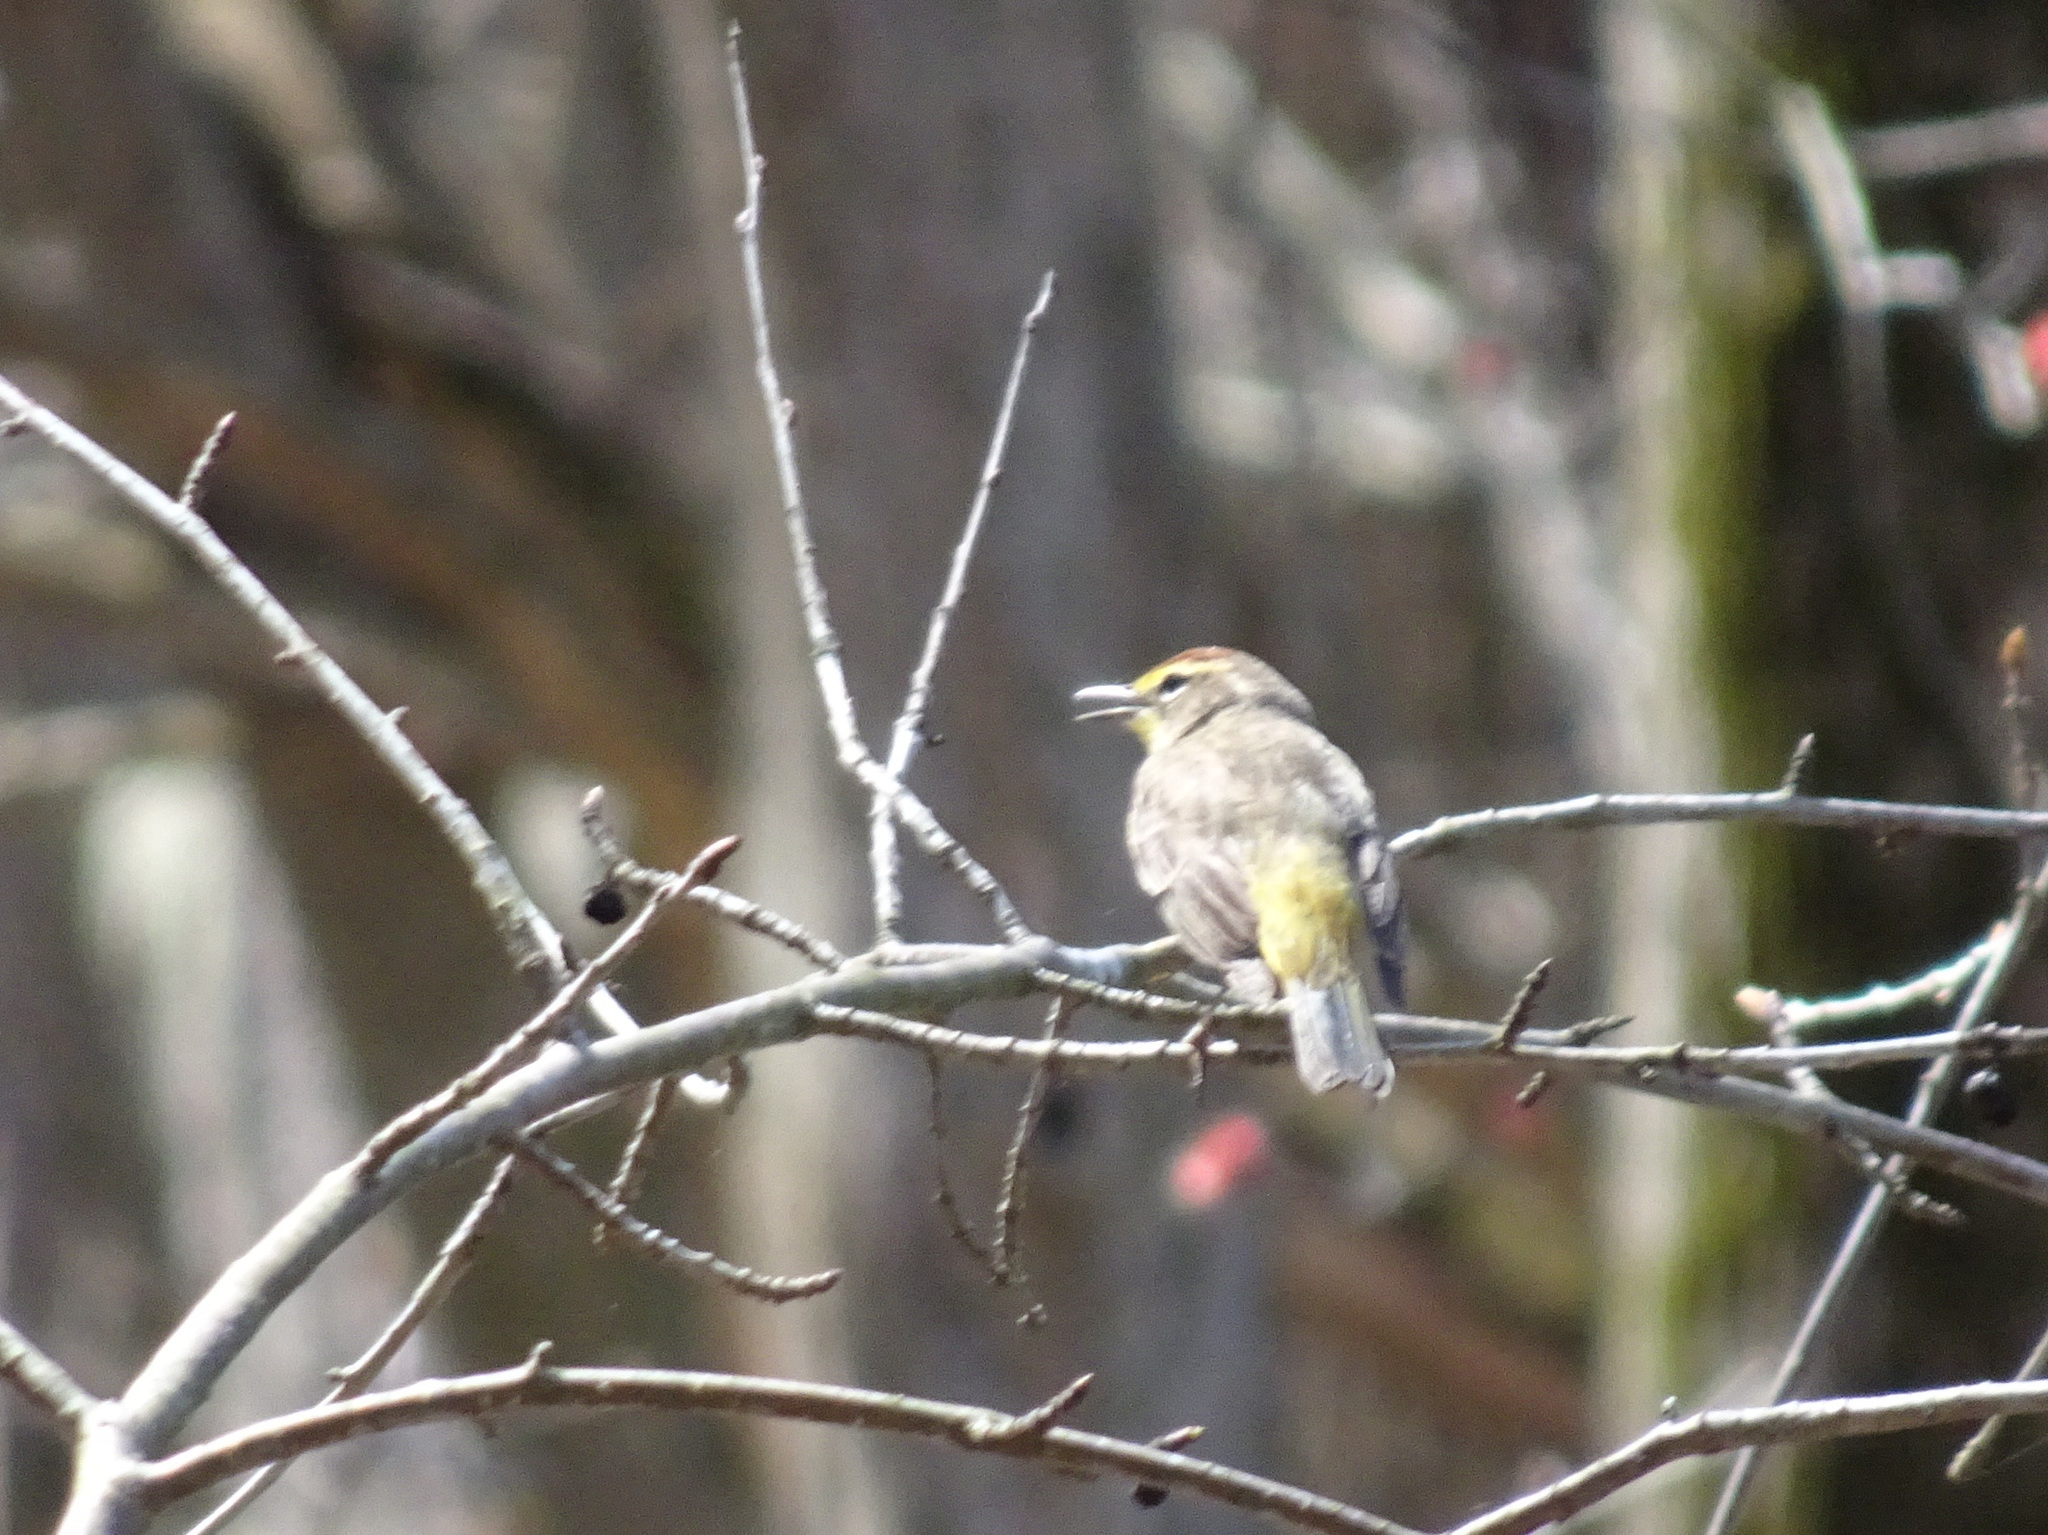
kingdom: Animalia
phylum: Chordata
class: Aves
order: Passeriformes
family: Parulidae
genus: Setophaga
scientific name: Setophaga palmarum
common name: Palm warbler
